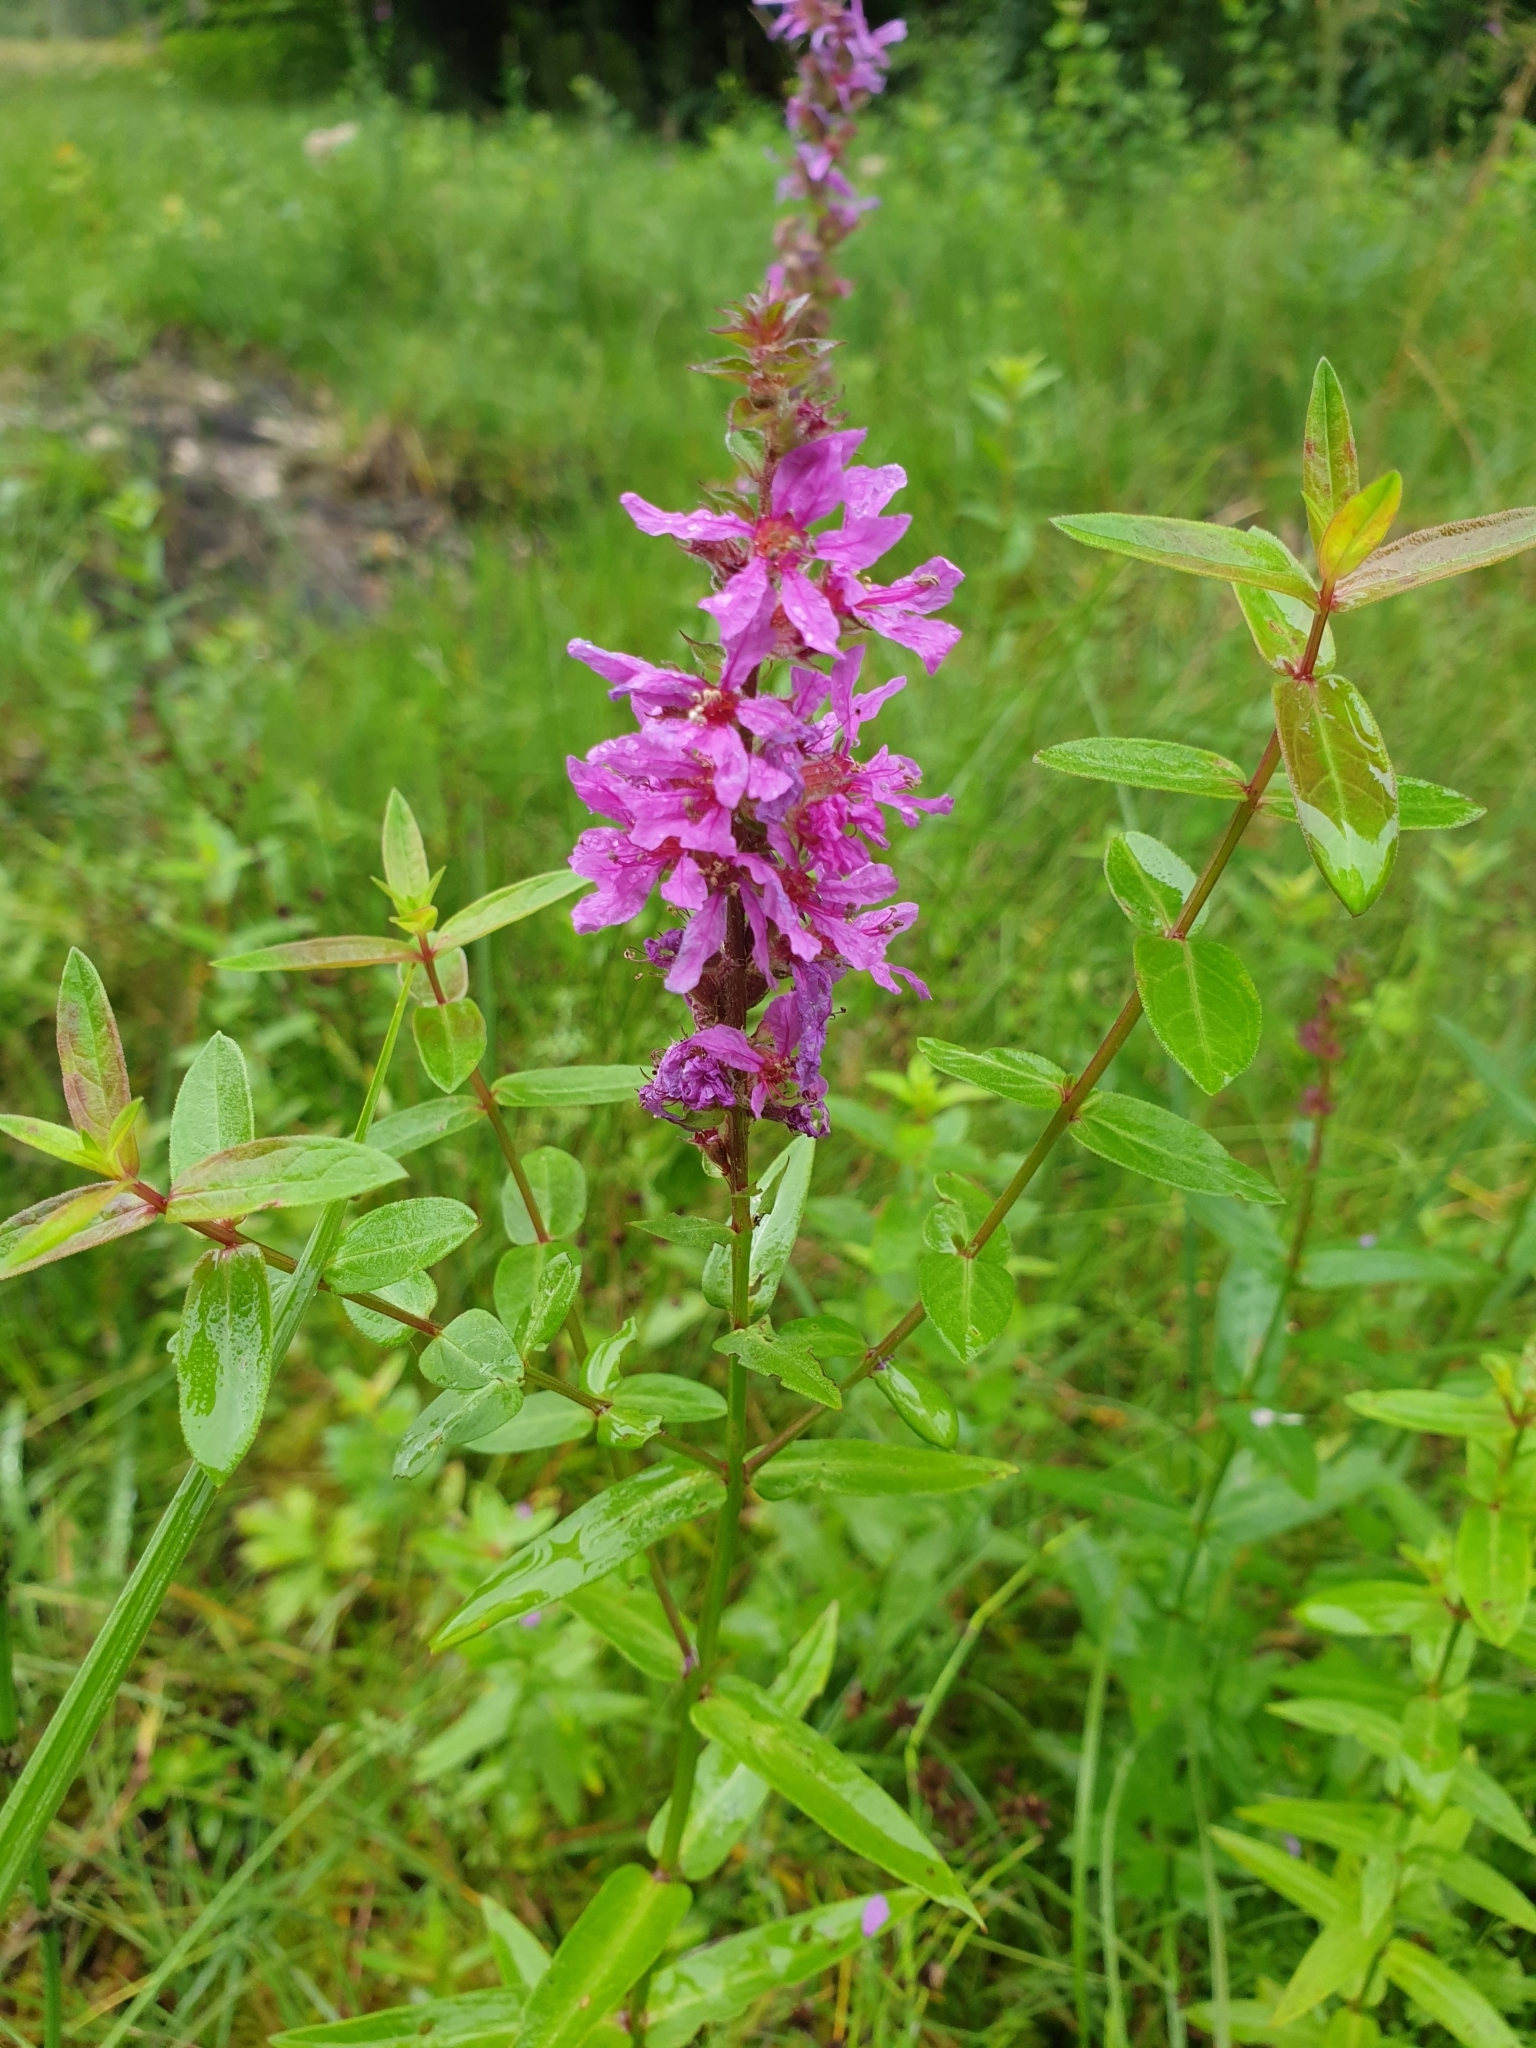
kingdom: Plantae
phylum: Tracheophyta
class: Magnoliopsida
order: Myrtales
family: Lythraceae
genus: Lythrum
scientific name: Lythrum salicaria
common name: Purple loosestrife
